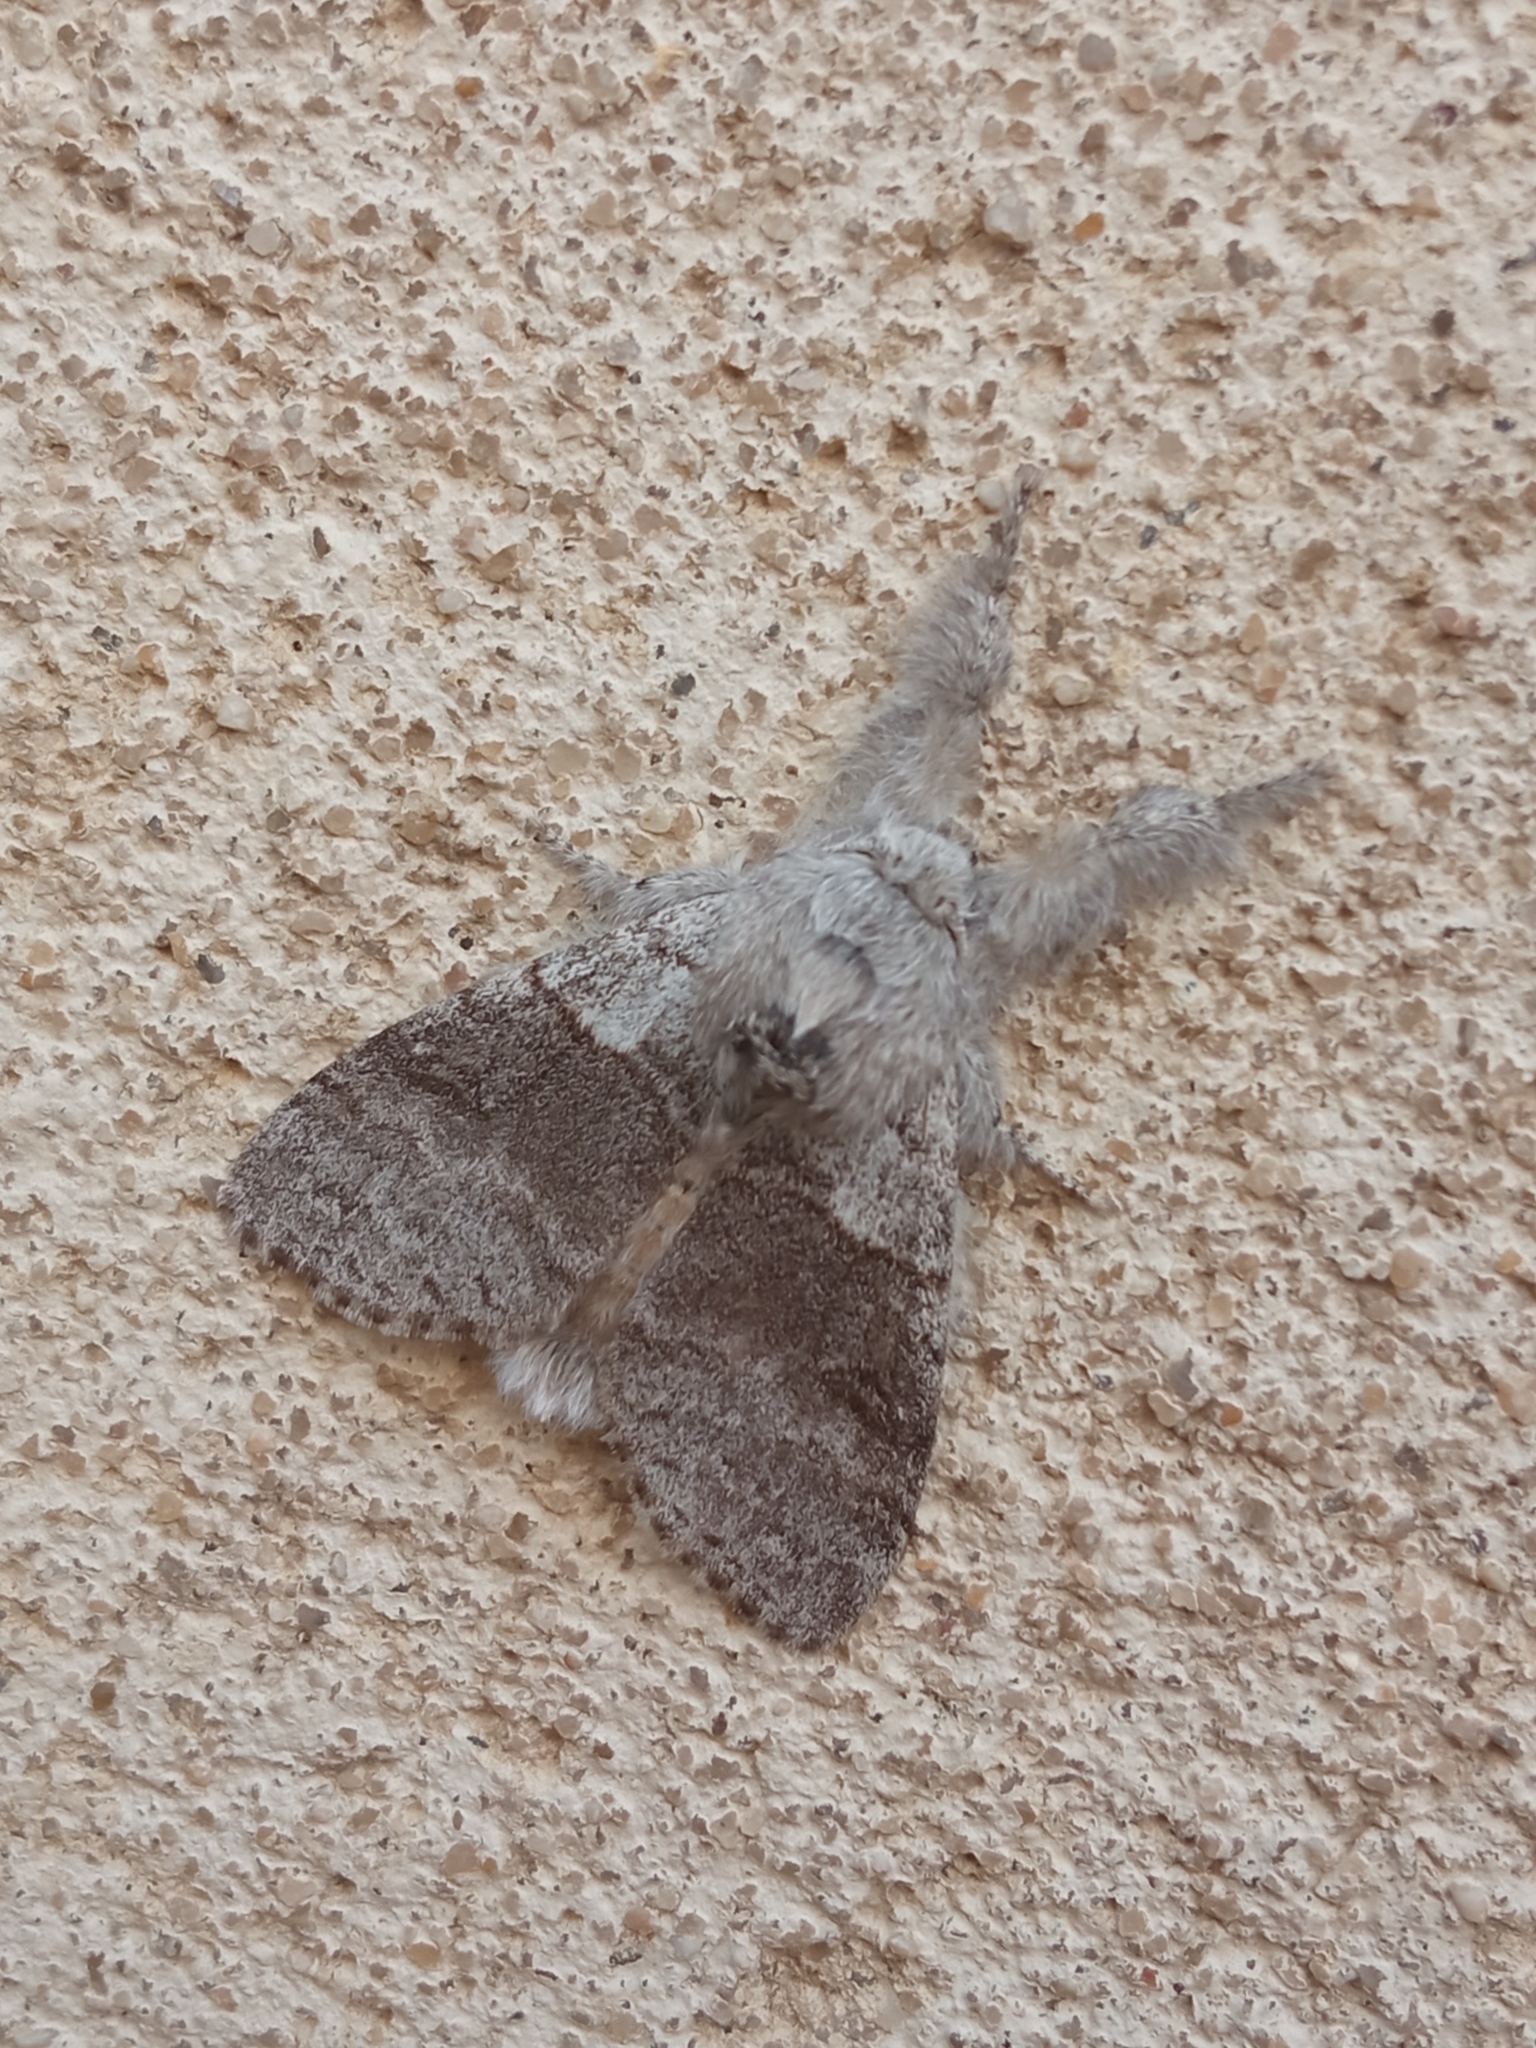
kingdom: Animalia
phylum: Arthropoda
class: Insecta
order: Lepidoptera
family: Erebidae
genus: Calliteara
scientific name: Calliteara pudibunda
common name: Pale tussock
